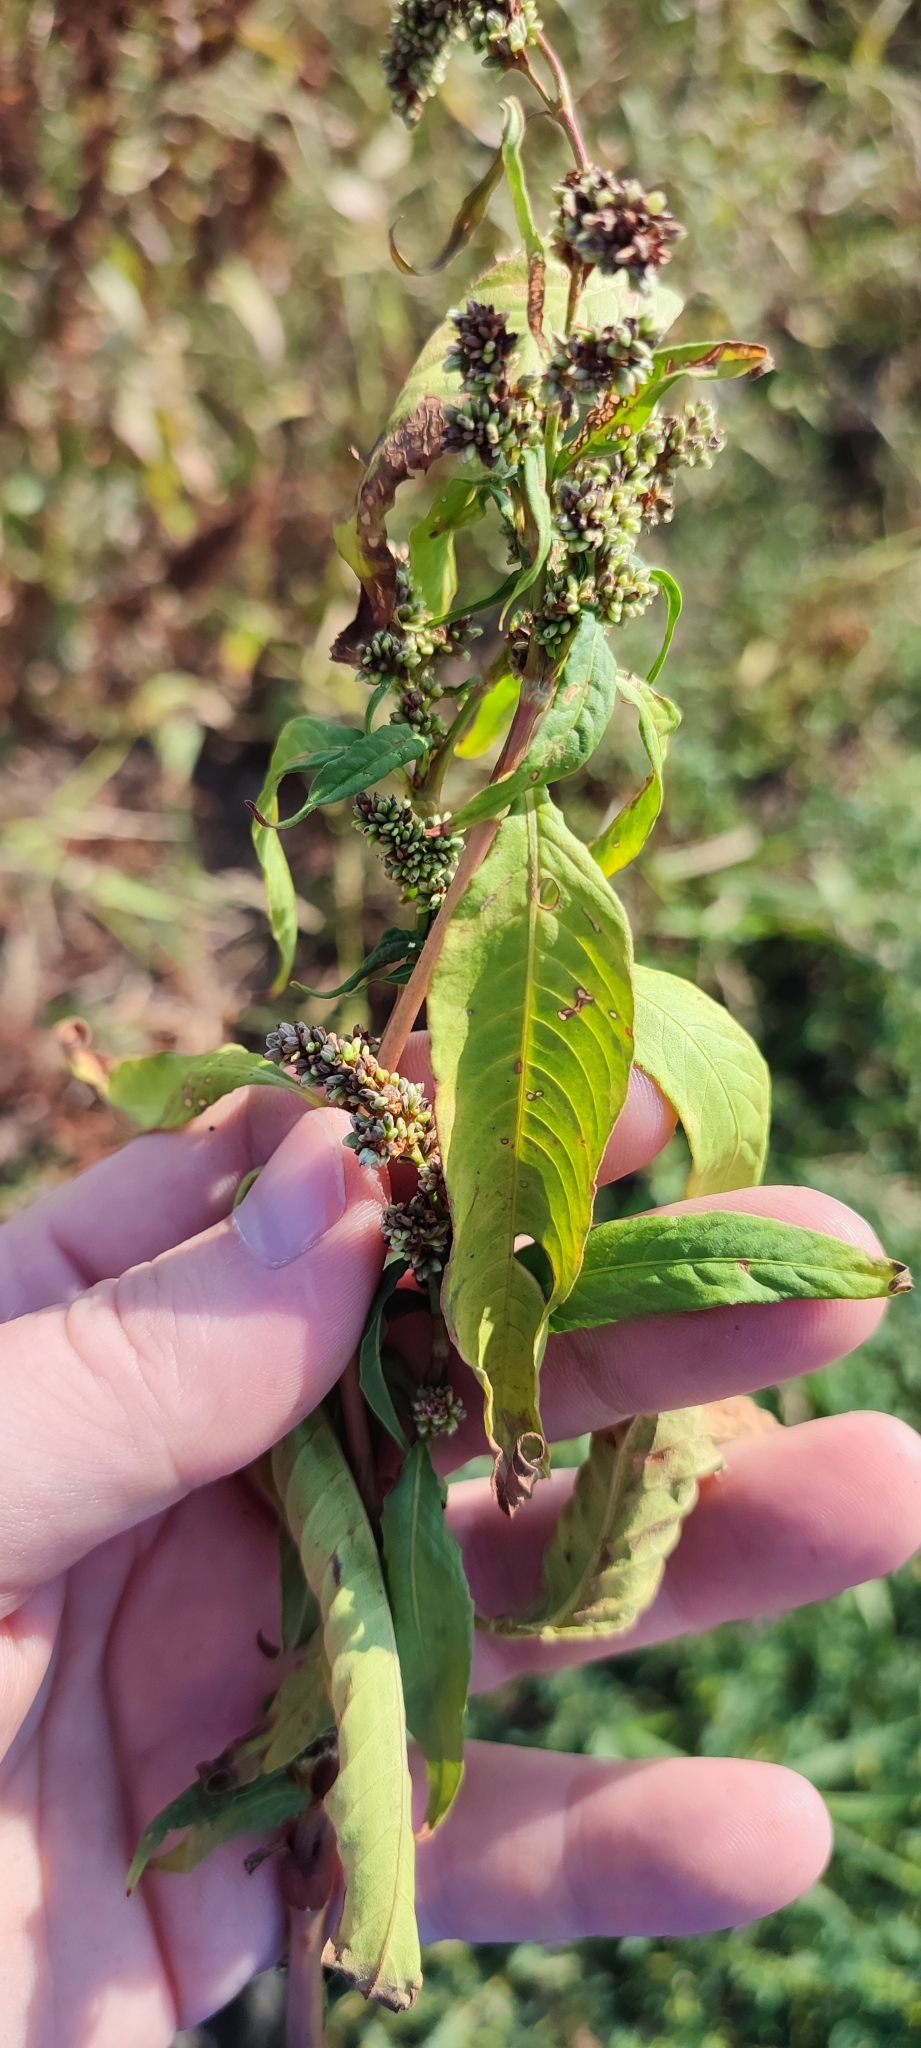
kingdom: Plantae
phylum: Tracheophyta
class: Magnoliopsida
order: Caryophyllales
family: Polygonaceae
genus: Persicaria
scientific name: Persicaria lapathifolia
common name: Curlytop knotweed
